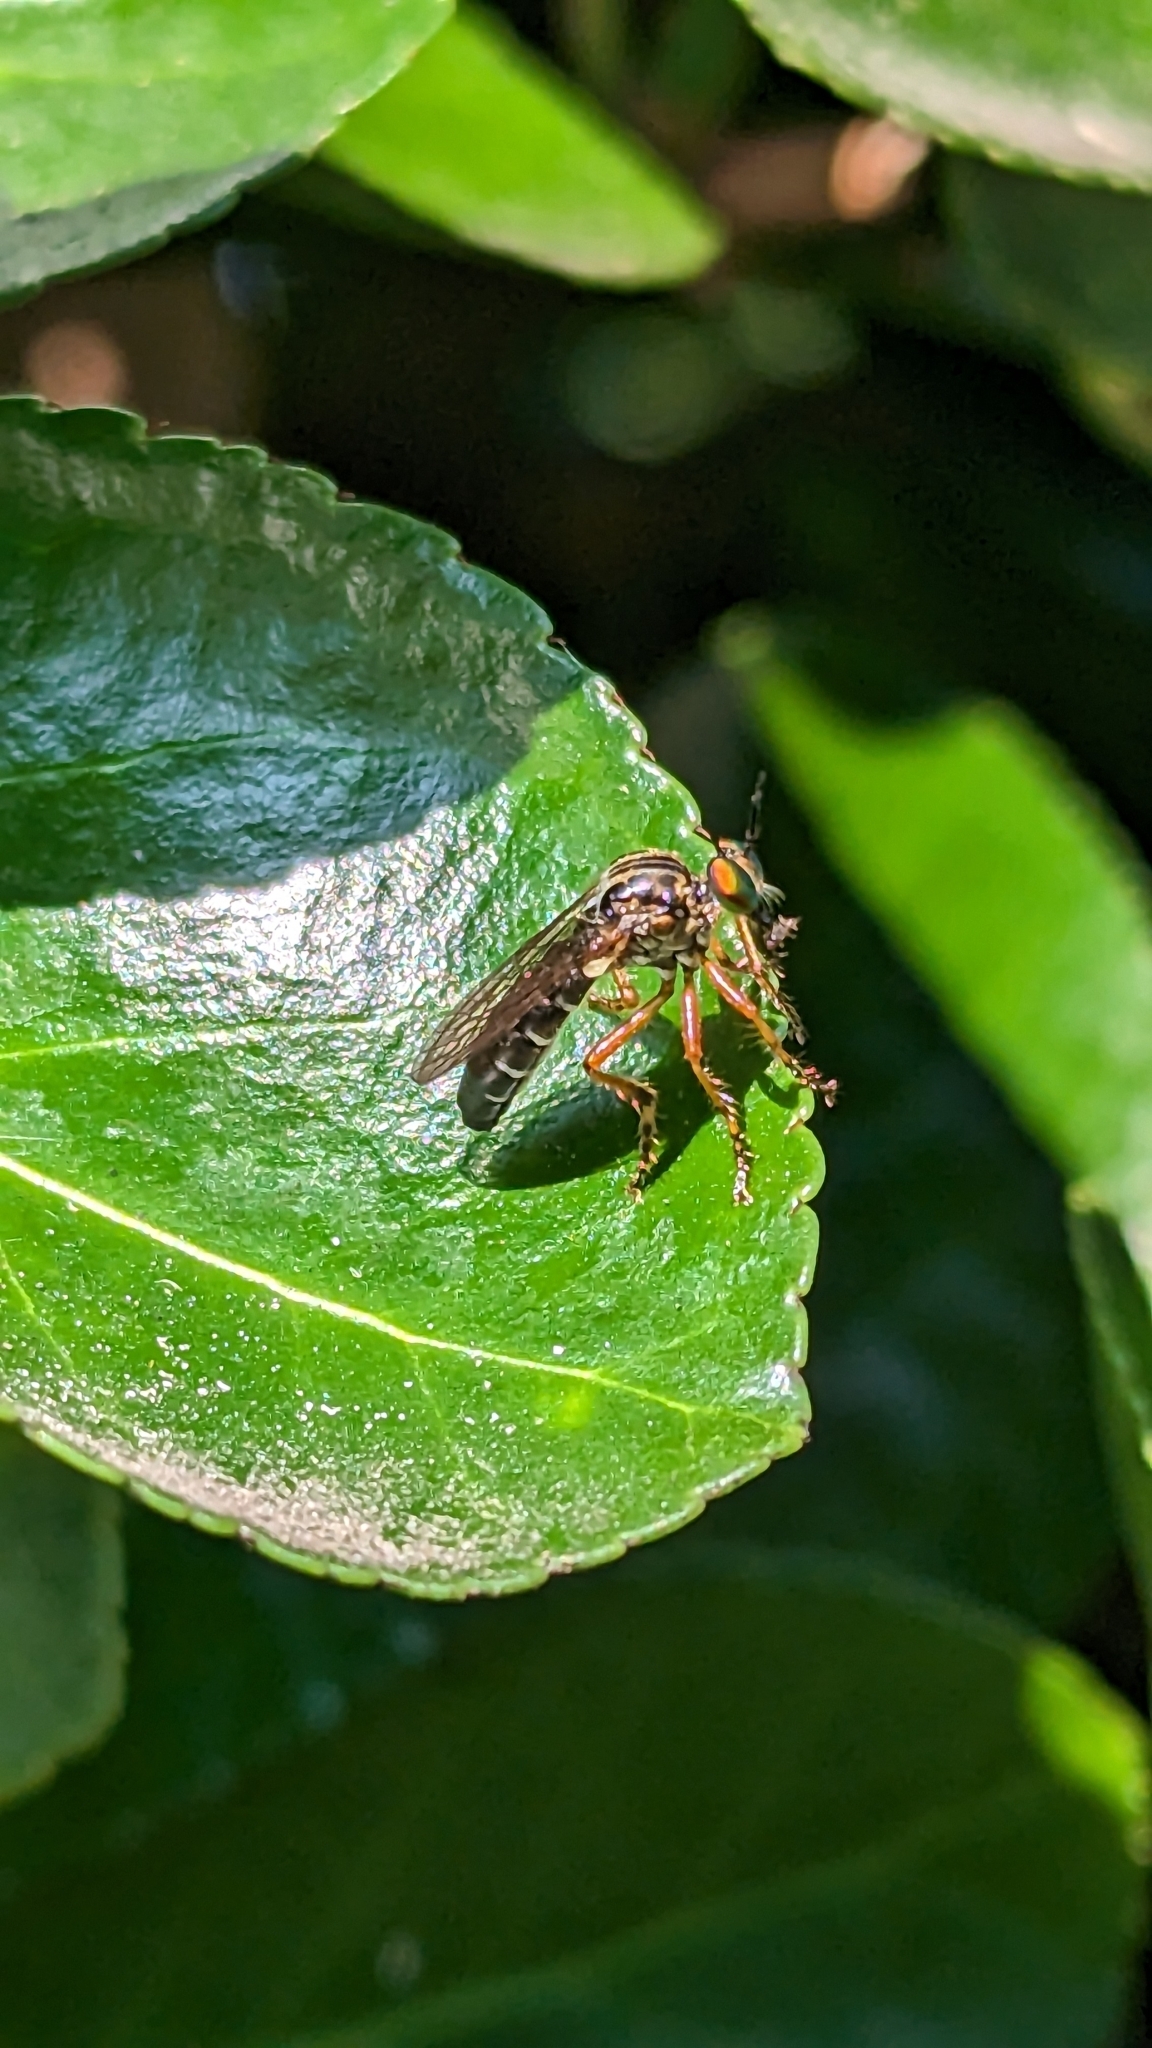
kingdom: Animalia
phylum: Arthropoda
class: Insecta
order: Diptera
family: Asilidae
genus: Taracticus
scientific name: Taracticus octopunctatus
